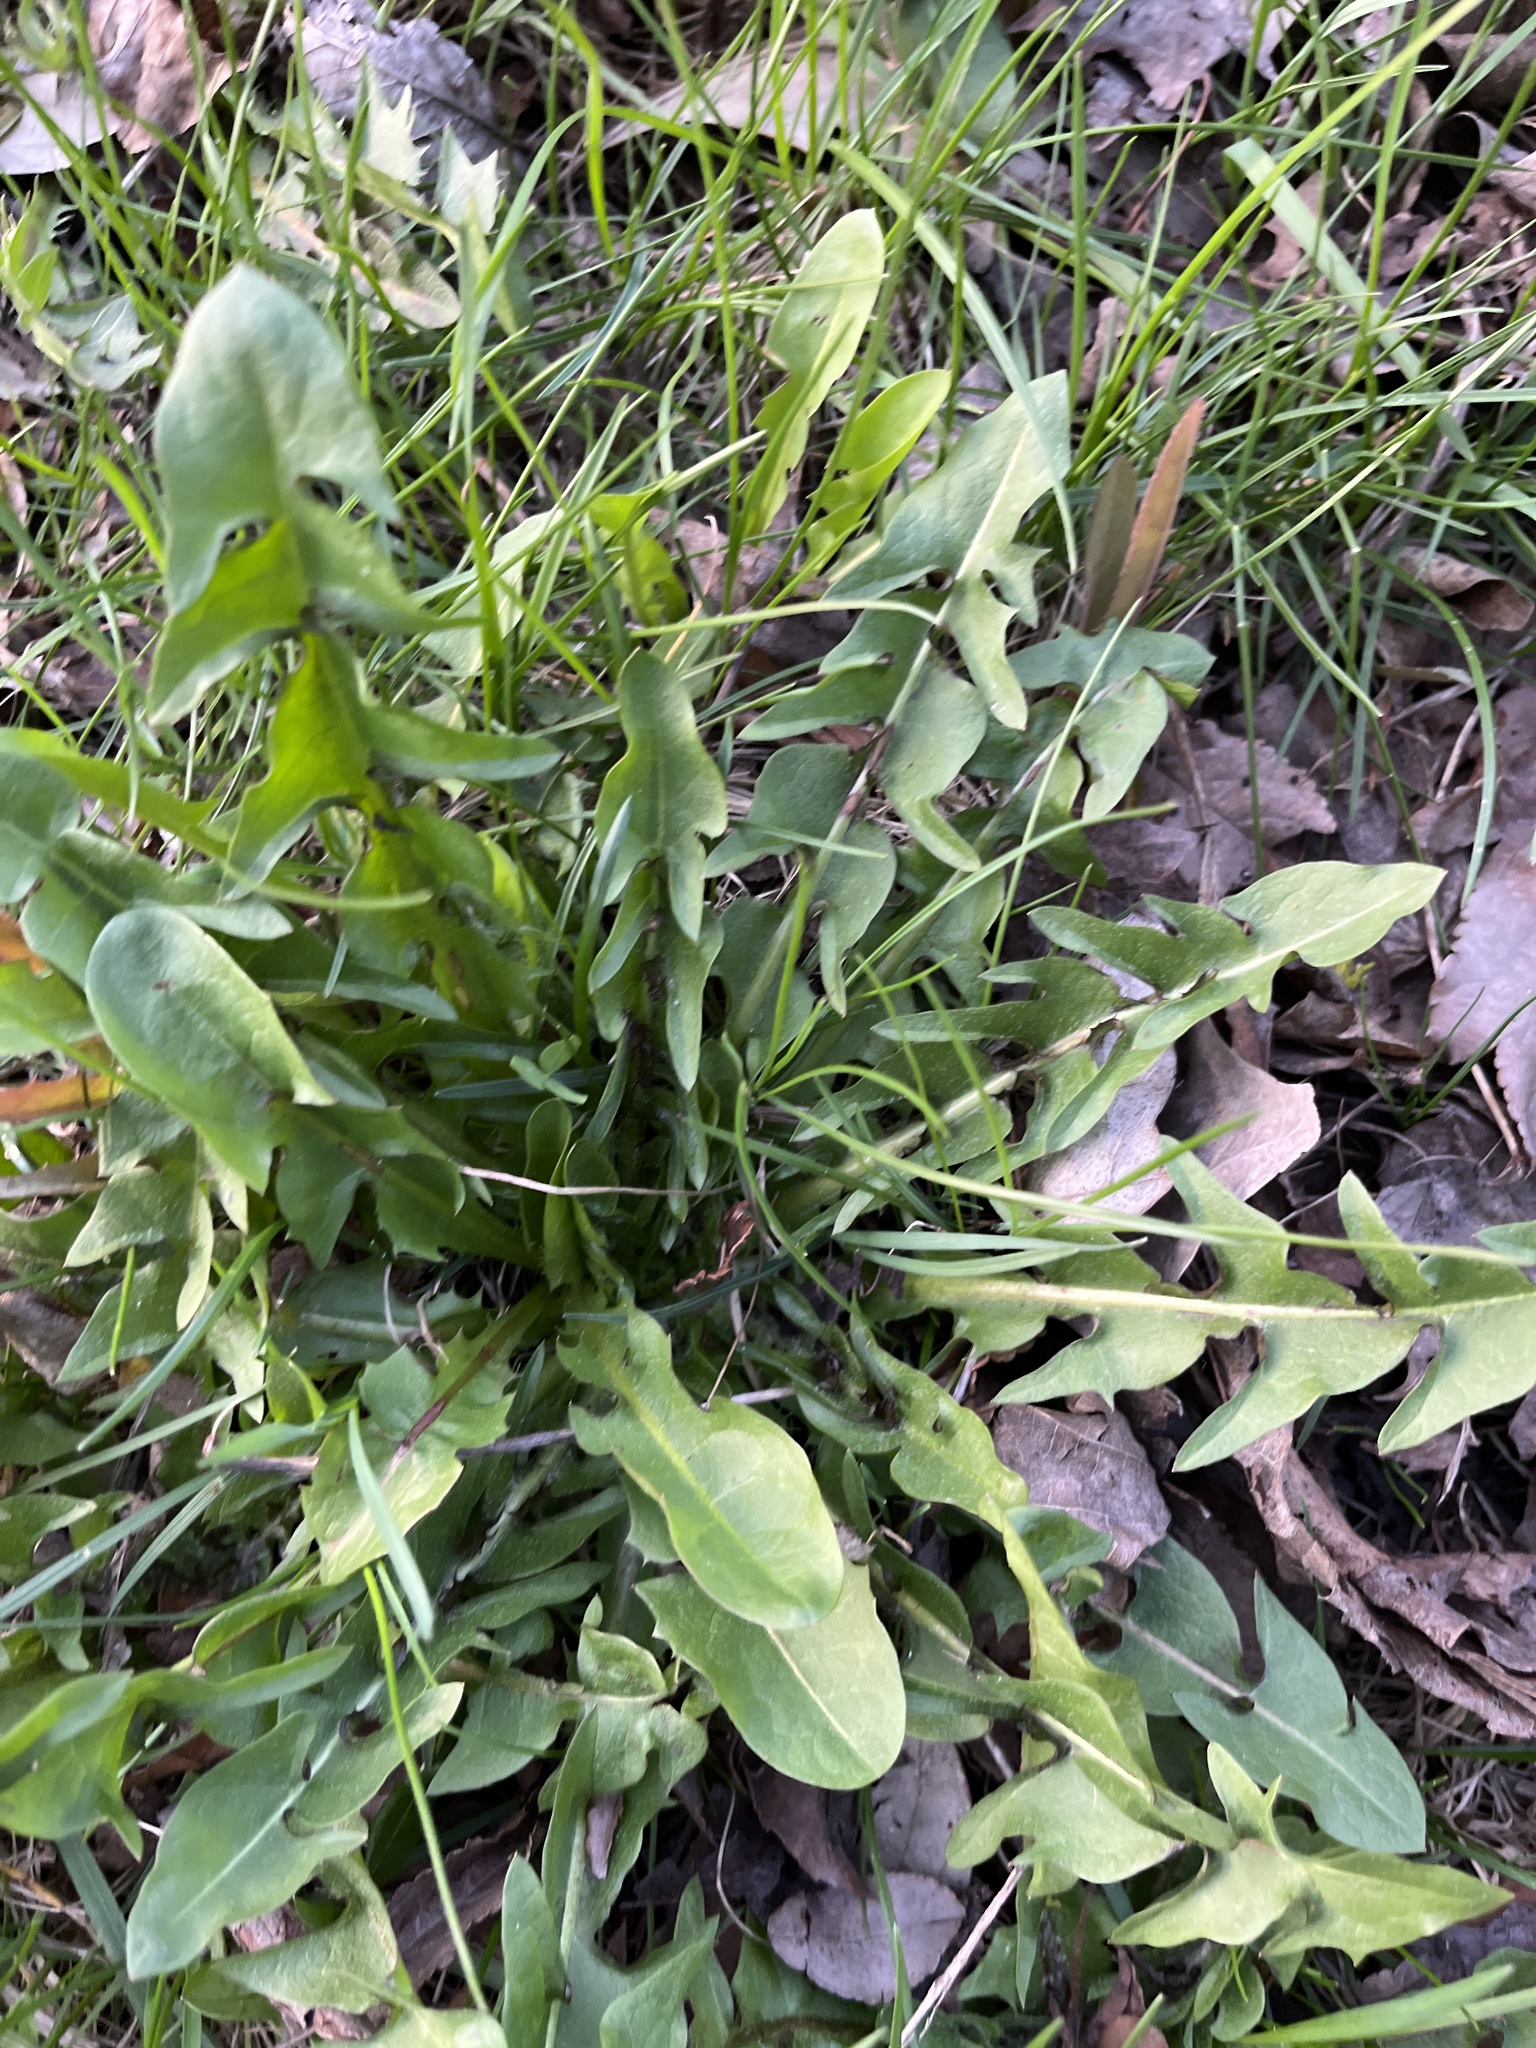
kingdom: Plantae
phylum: Tracheophyta
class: Magnoliopsida
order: Asterales
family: Asteraceae
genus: Taraxacum
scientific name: Taraxacum officinale
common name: Common dandelion
